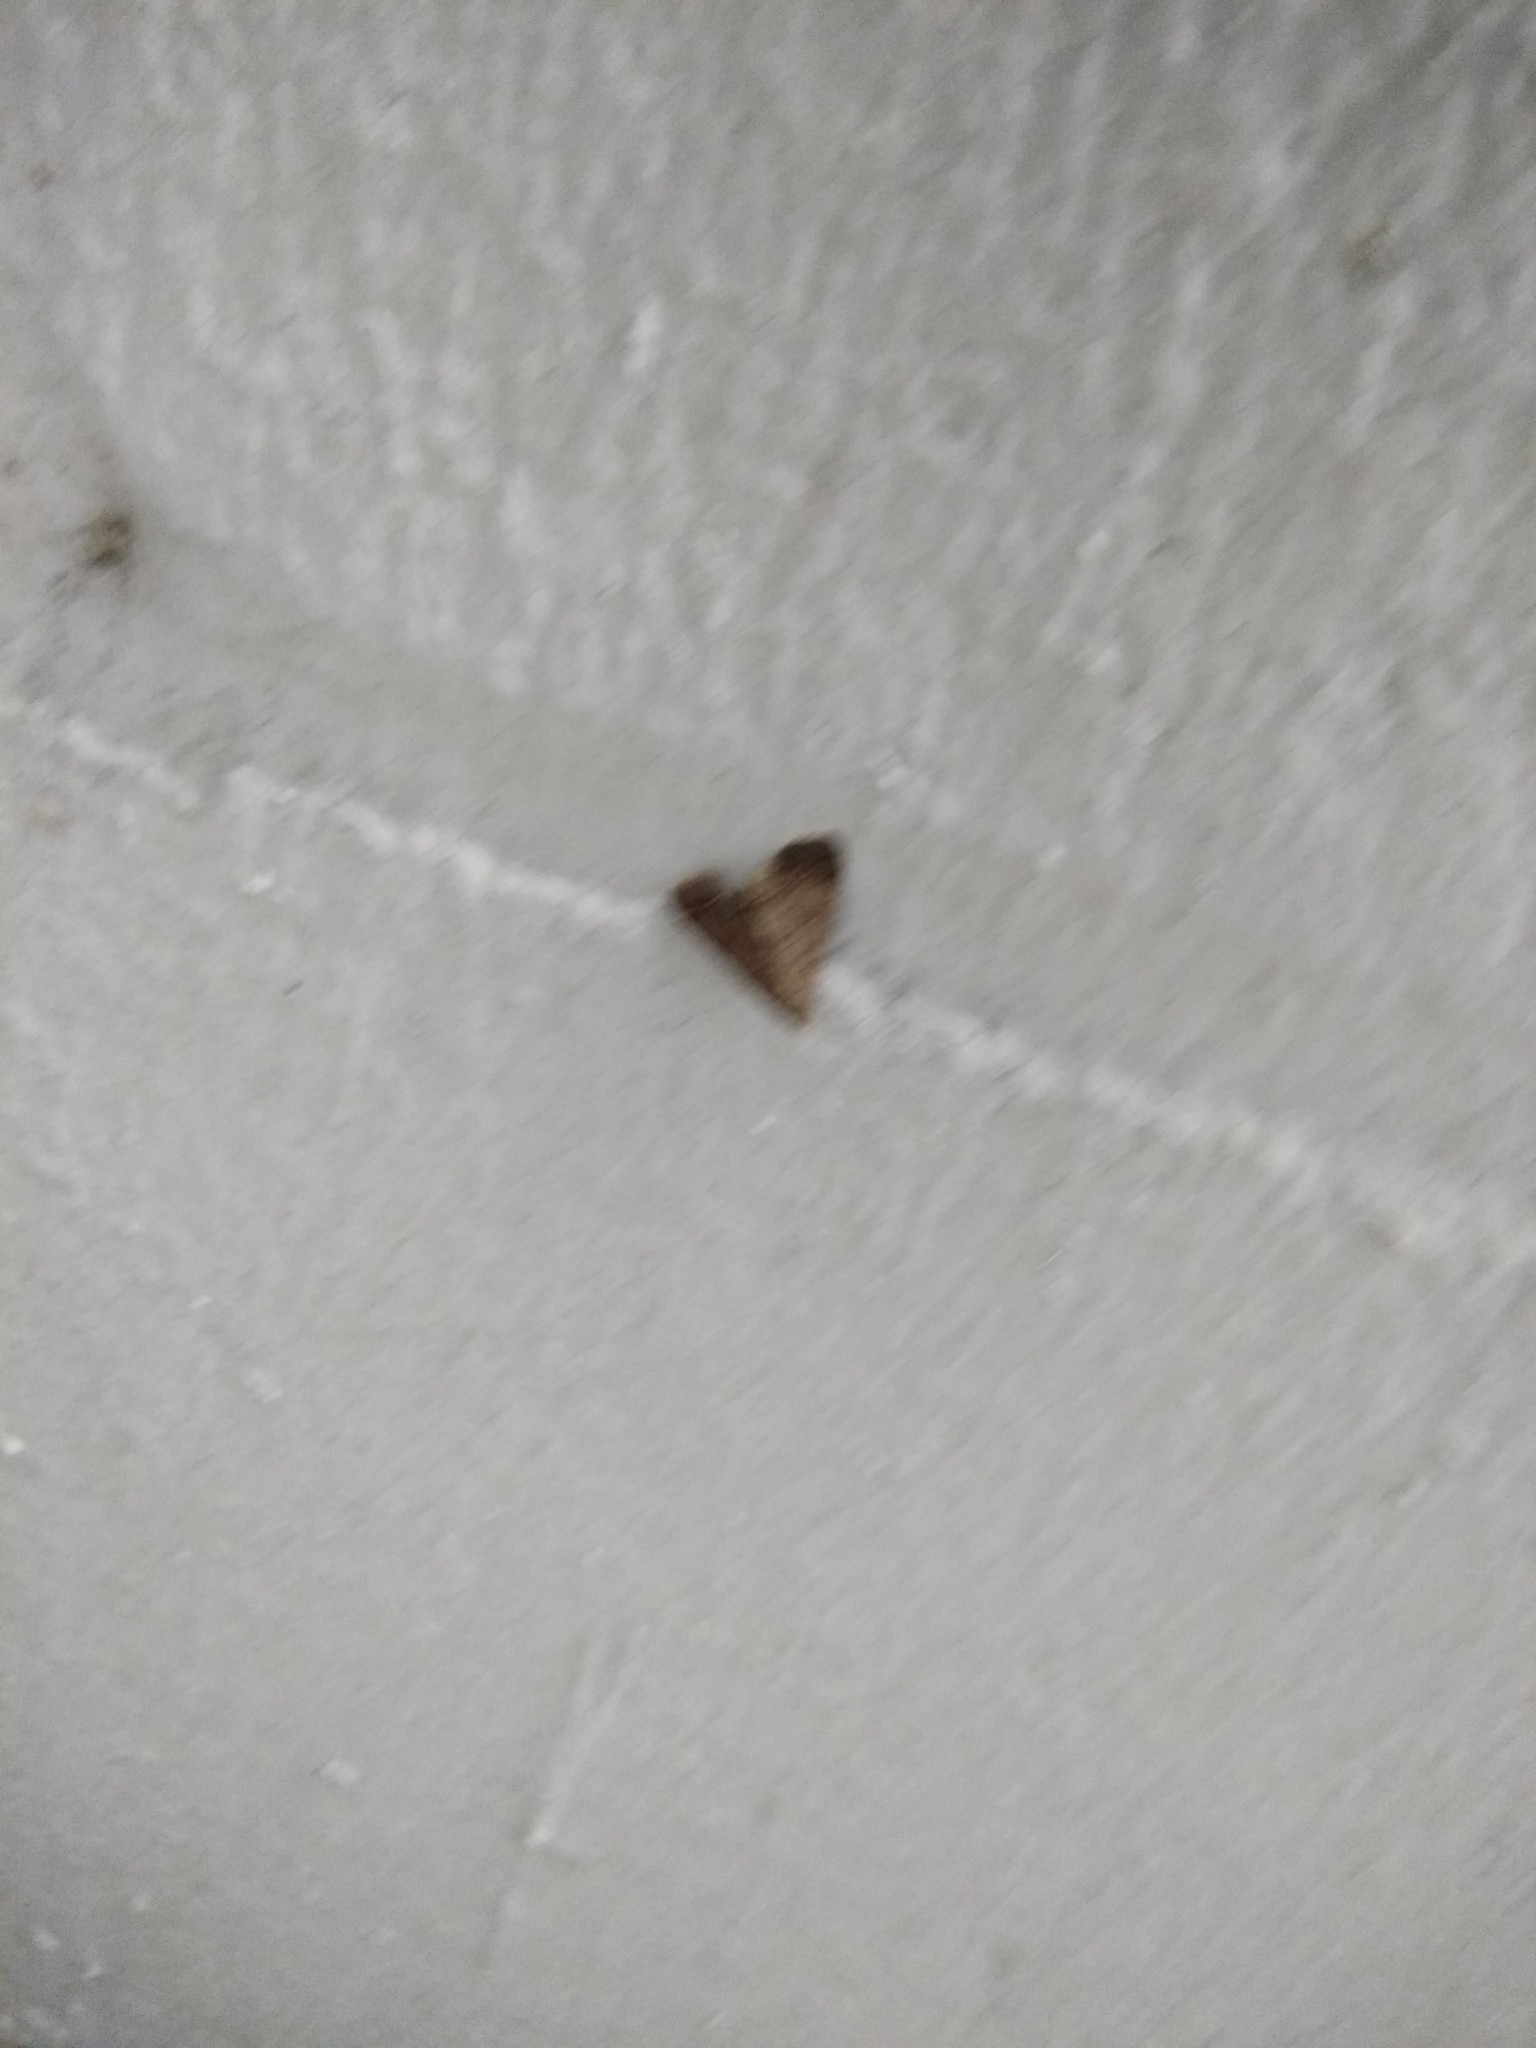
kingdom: Animalia
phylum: Arthropoda
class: Insecta
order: Lepidoptera
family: Erebidae
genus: Bleptina
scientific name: Bleptina caradrinalis
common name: Bent-winged owlet
